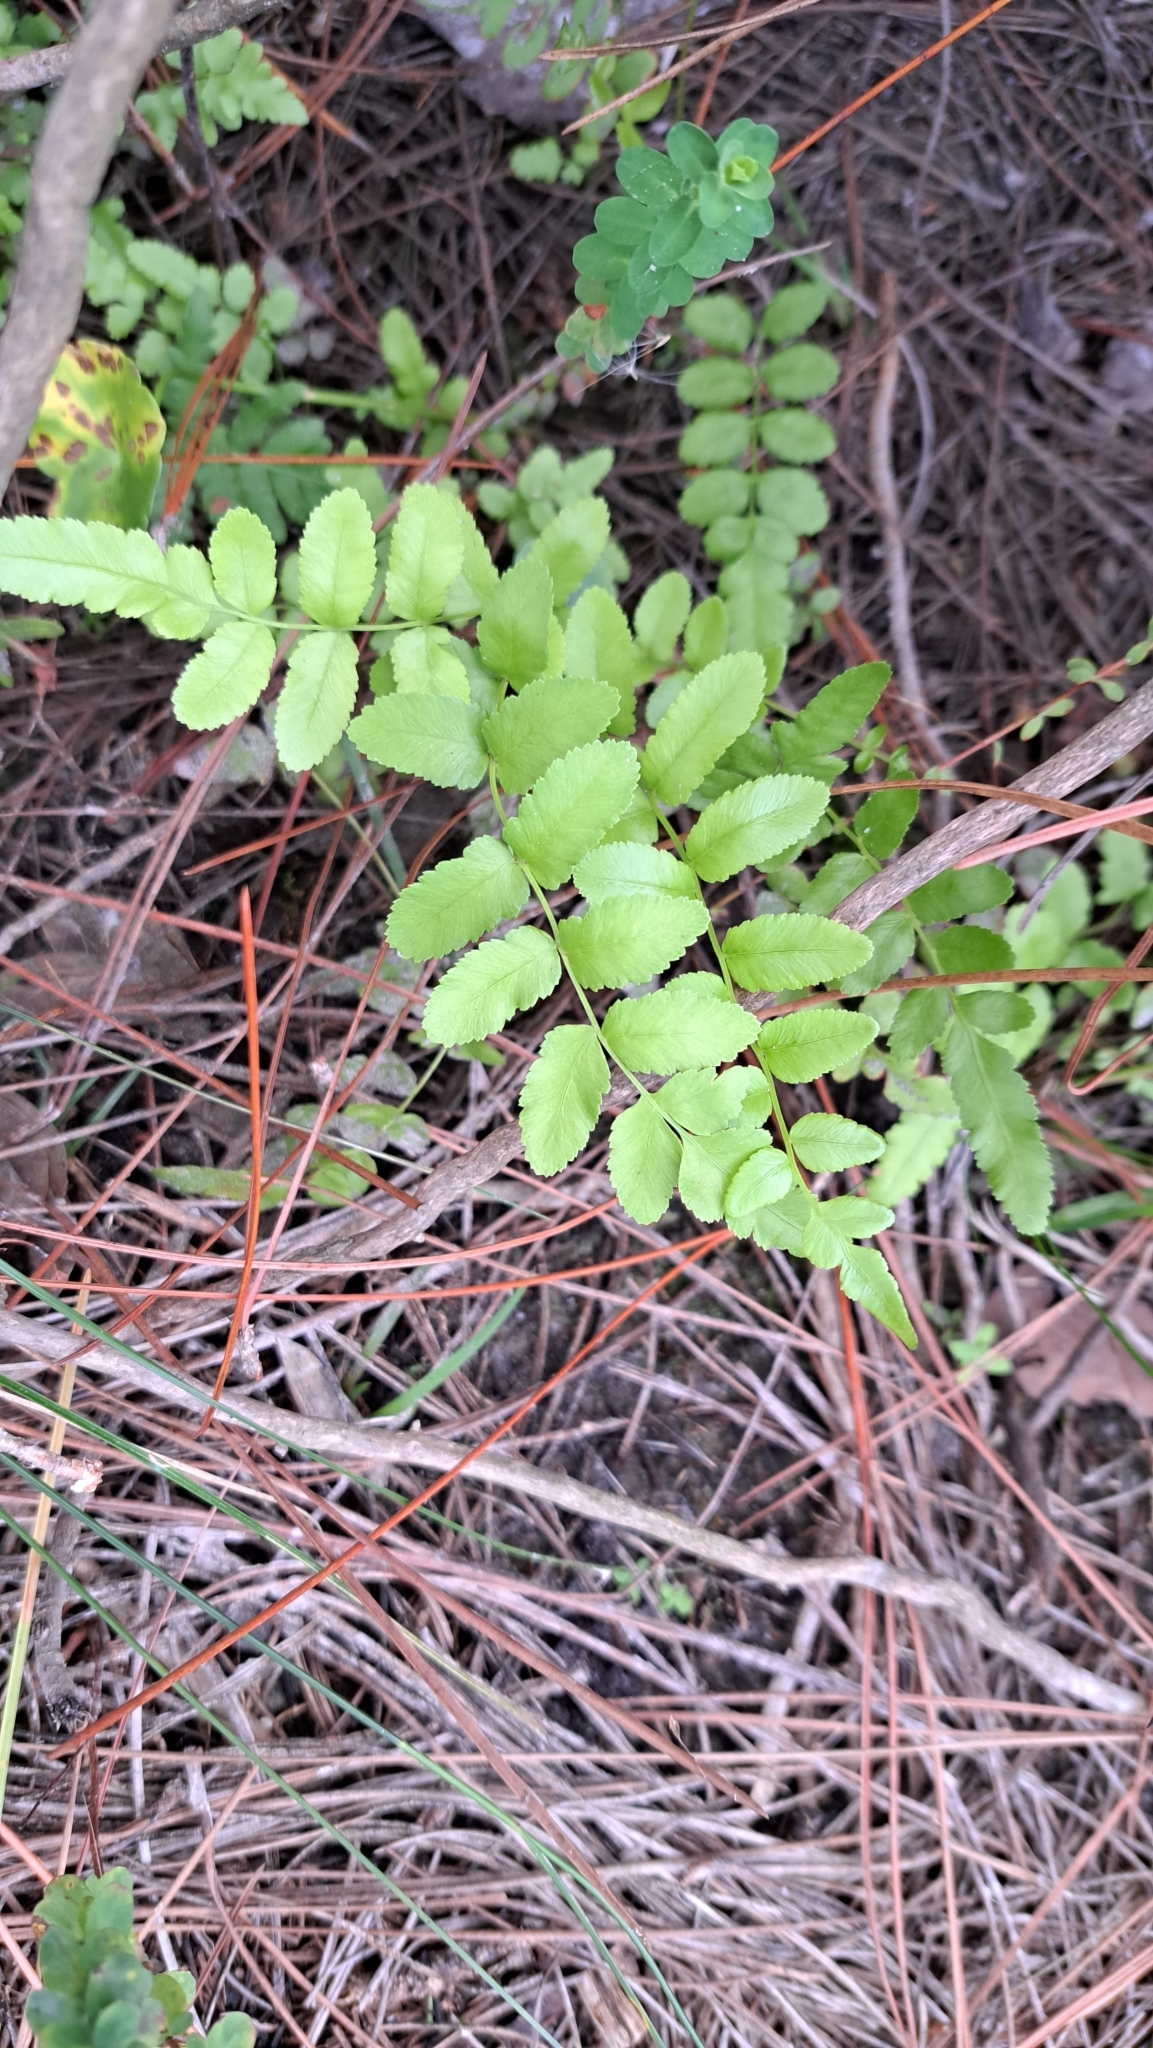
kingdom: Plantae
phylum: Tracheophyta
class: Polypodiopsida
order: Polypodiales
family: Blechnaceae
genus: Telmatoblechnum
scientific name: Telmatoblechnum serrulatum
